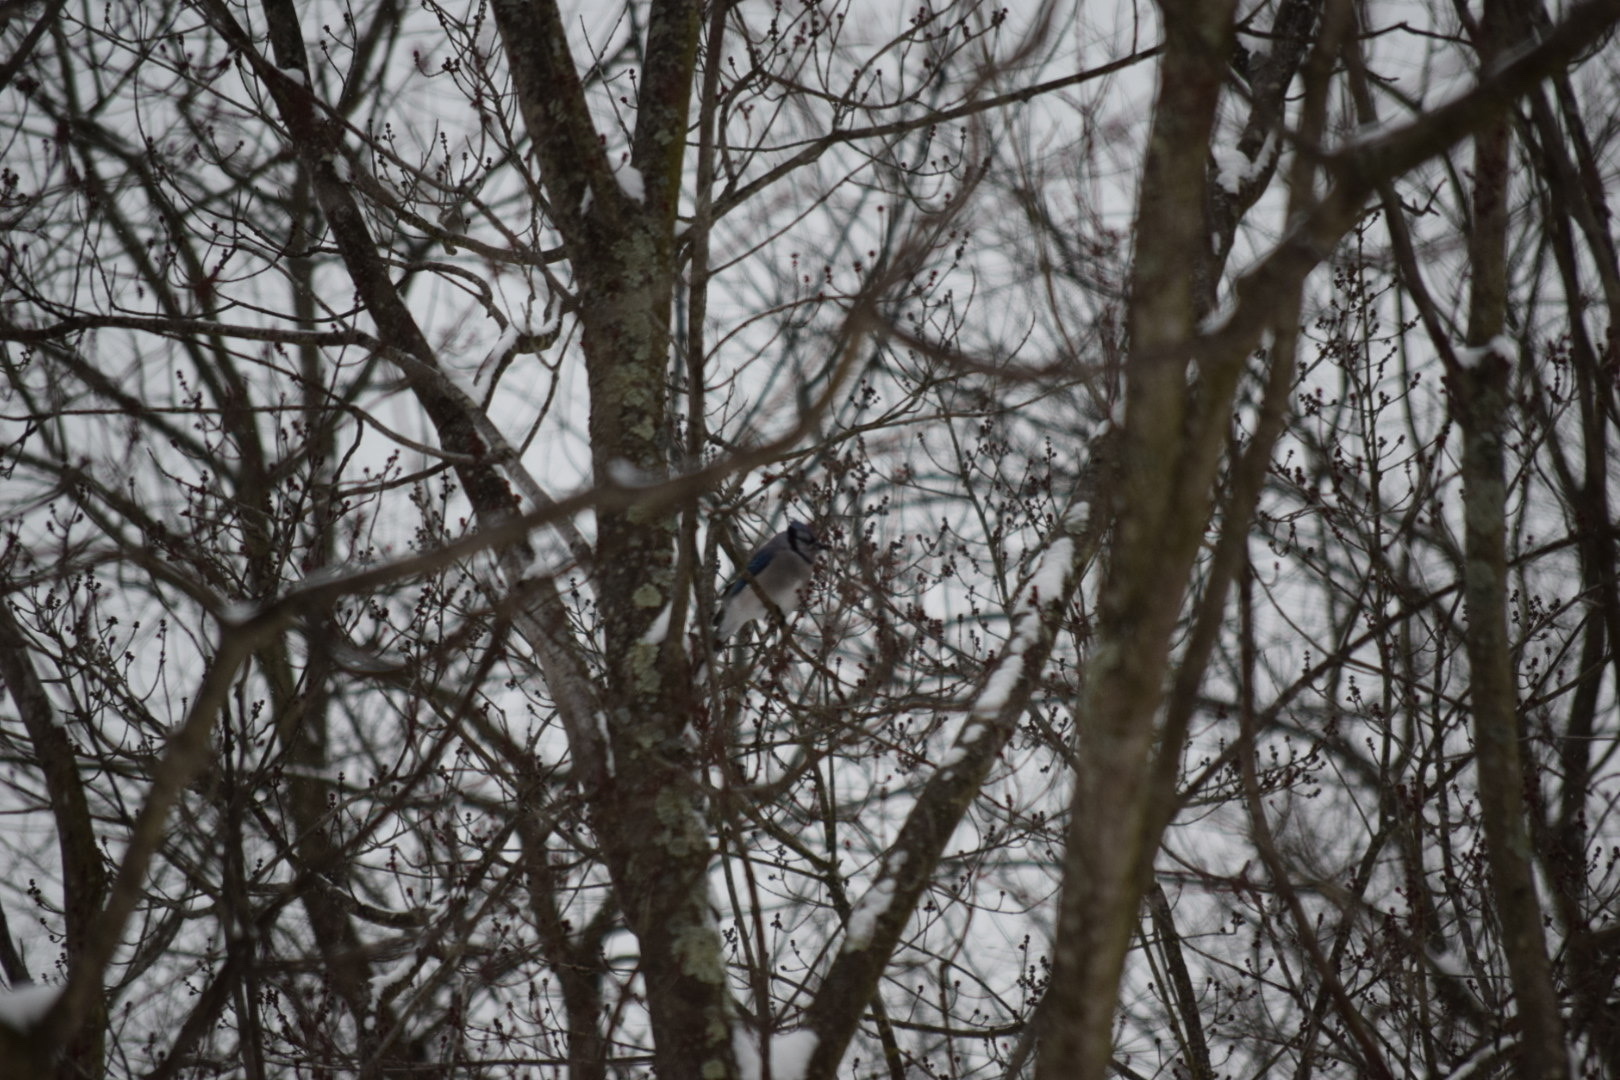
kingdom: Animalia
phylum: Chordata
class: Aves
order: Passeriformes
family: Corvidae
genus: Cyanocitta
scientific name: Cyanocitta cristata
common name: Blue jay
